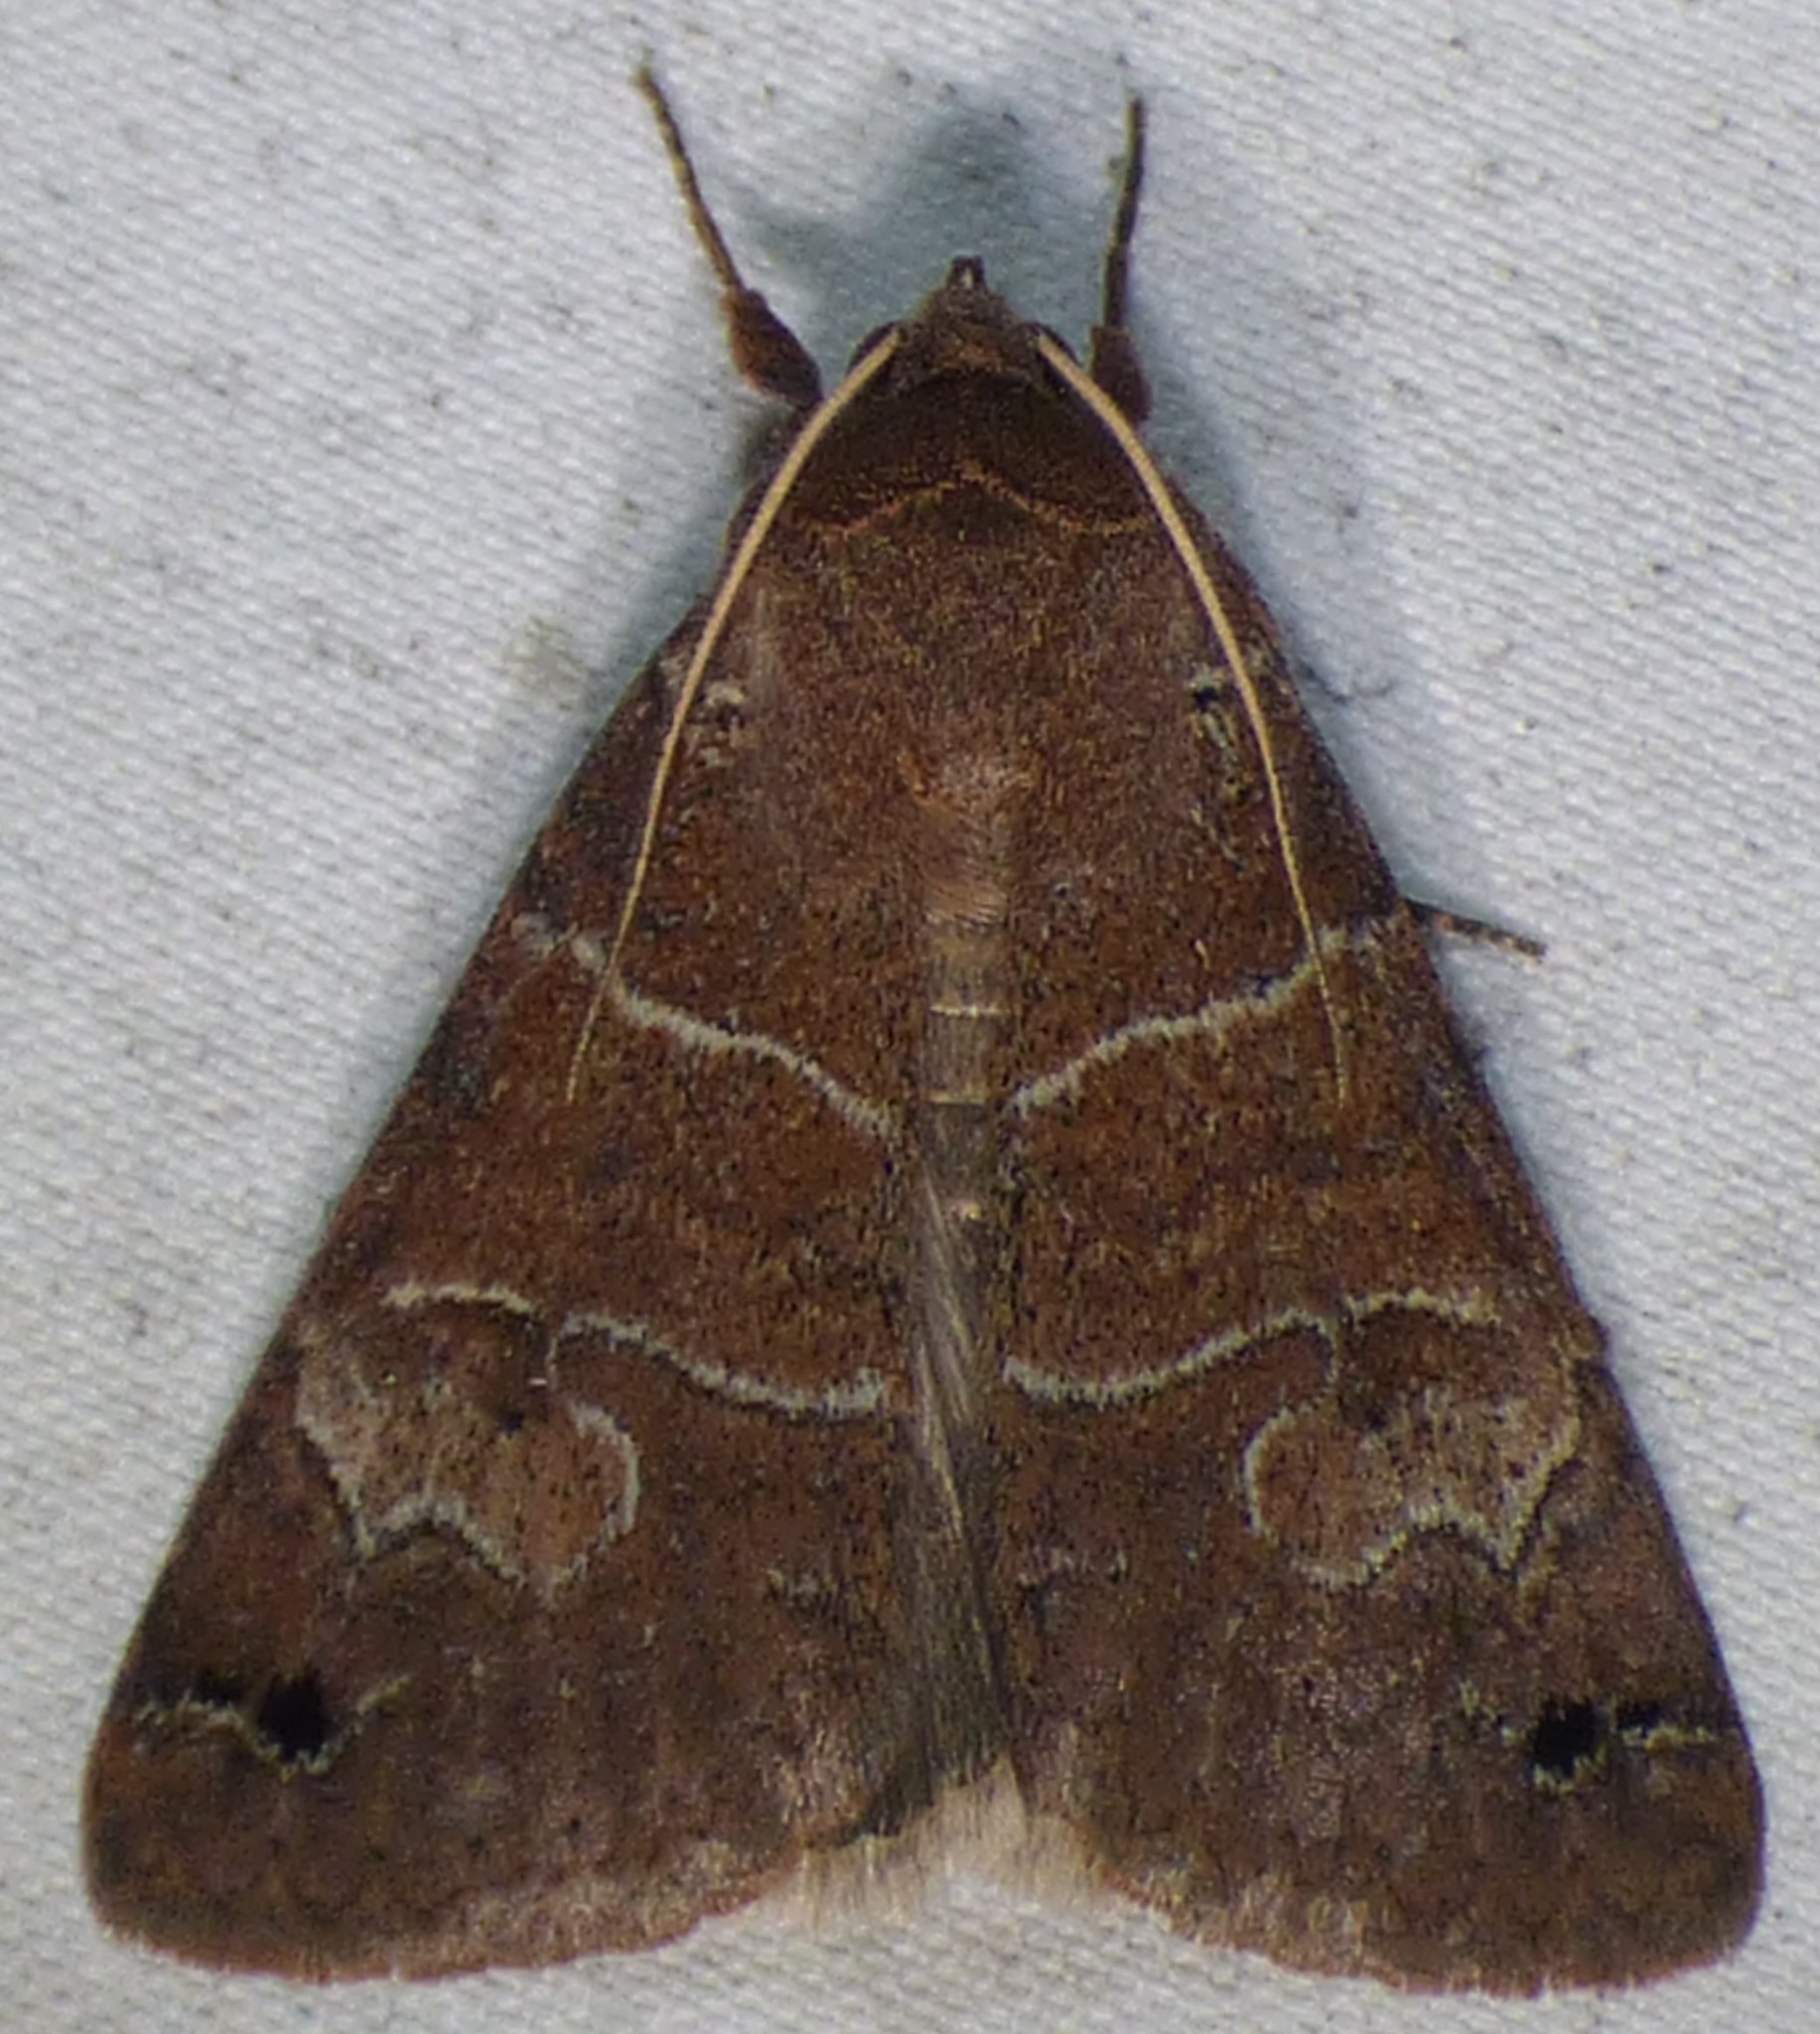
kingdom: Animalia
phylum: Arthropoda
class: Insecta
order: Lepidoptera
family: Erebidae
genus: Cissusa
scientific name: Cissusa spadix
